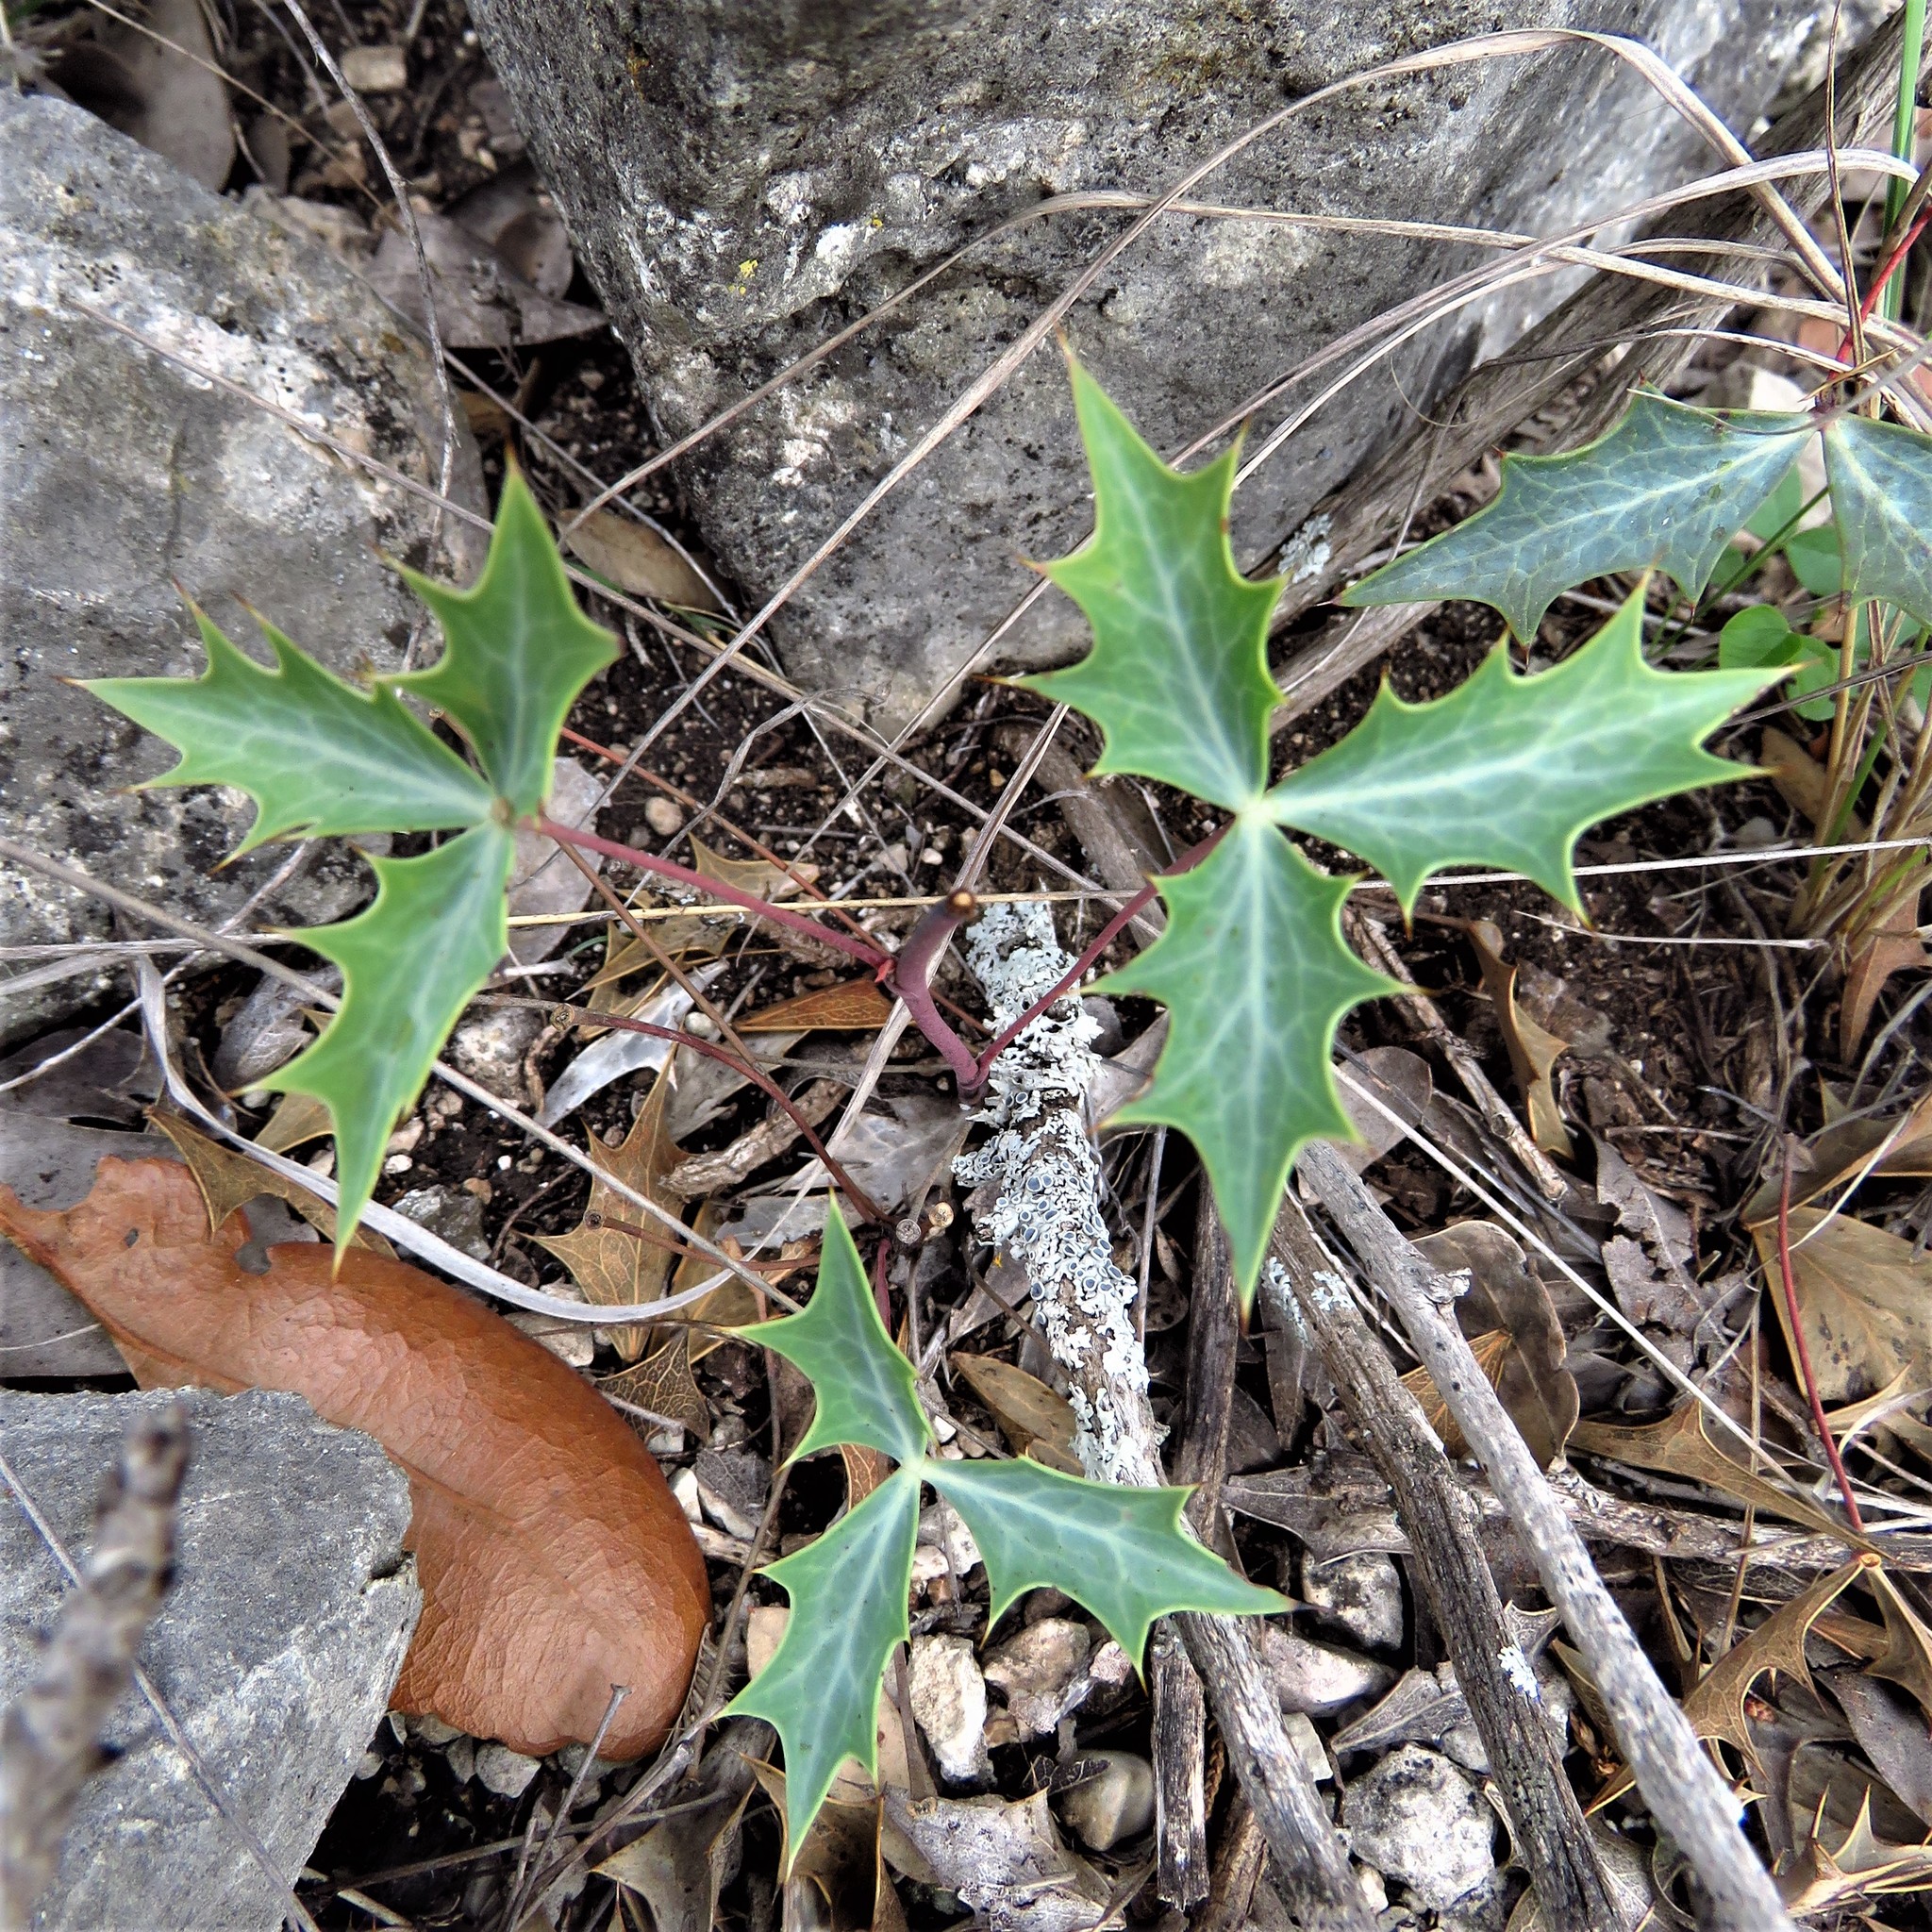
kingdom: Plantae
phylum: Tracheophyta
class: Magnoliopsida
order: Ranunculales
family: Berberidaceae
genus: Alloberberis
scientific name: Alloberberis trifoliolata
